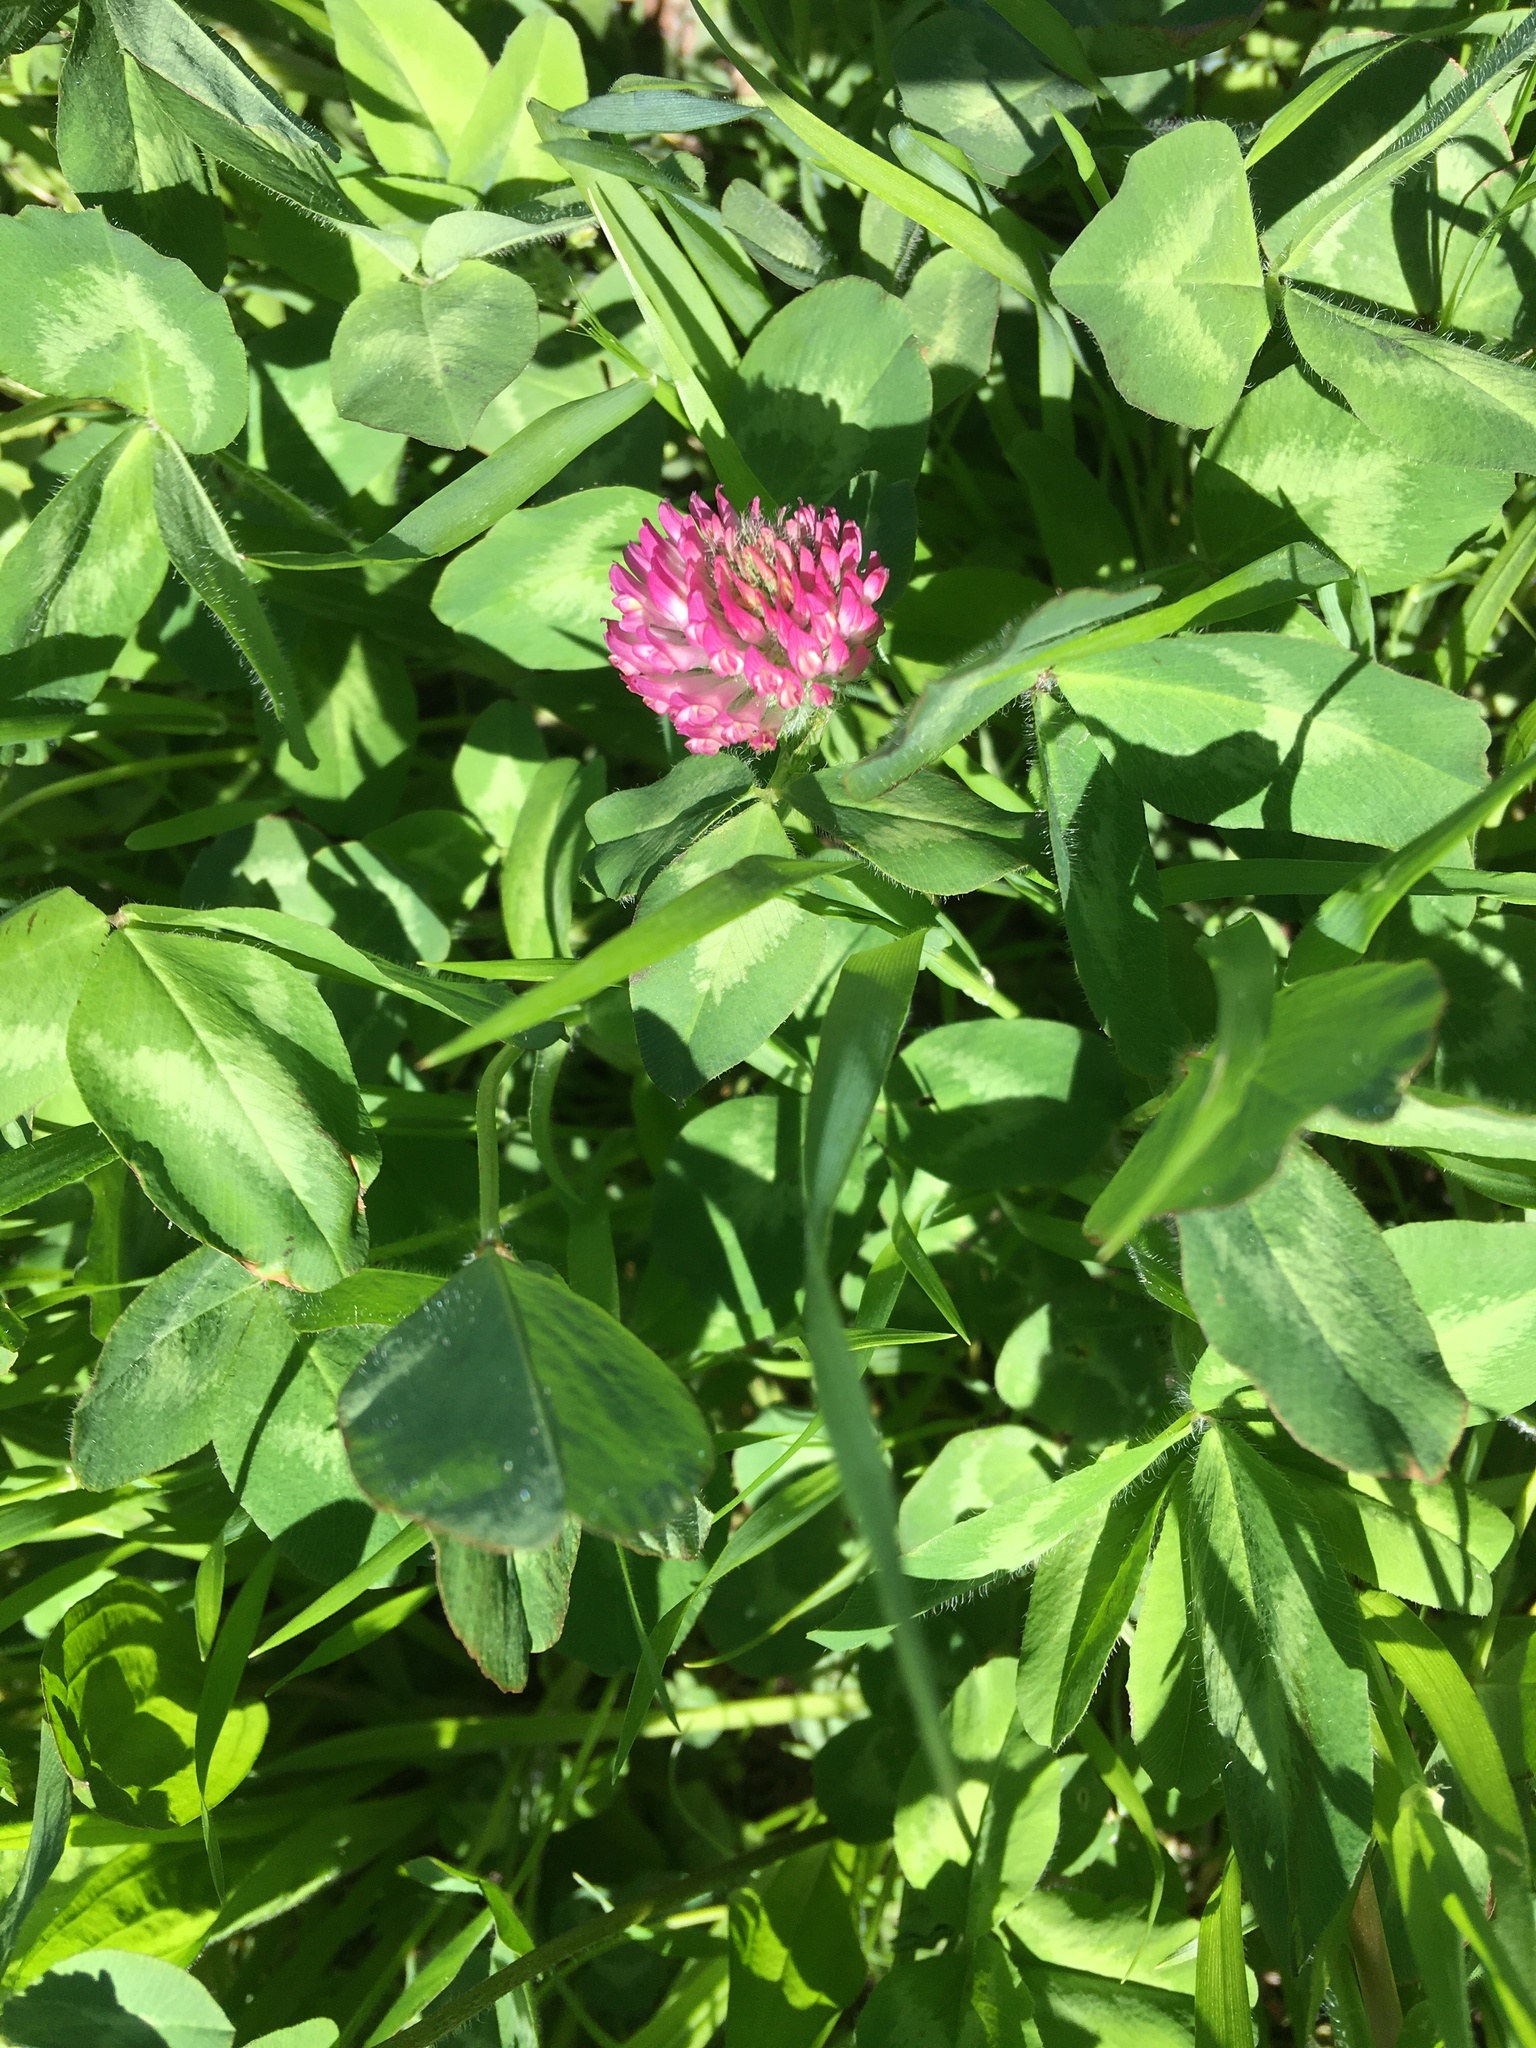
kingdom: Plantae
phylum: Tracheophyta
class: Magnoliopsida
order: Fabales
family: Fabaceae
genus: Trifolium
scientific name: Trifolium pratense
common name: Red clover
